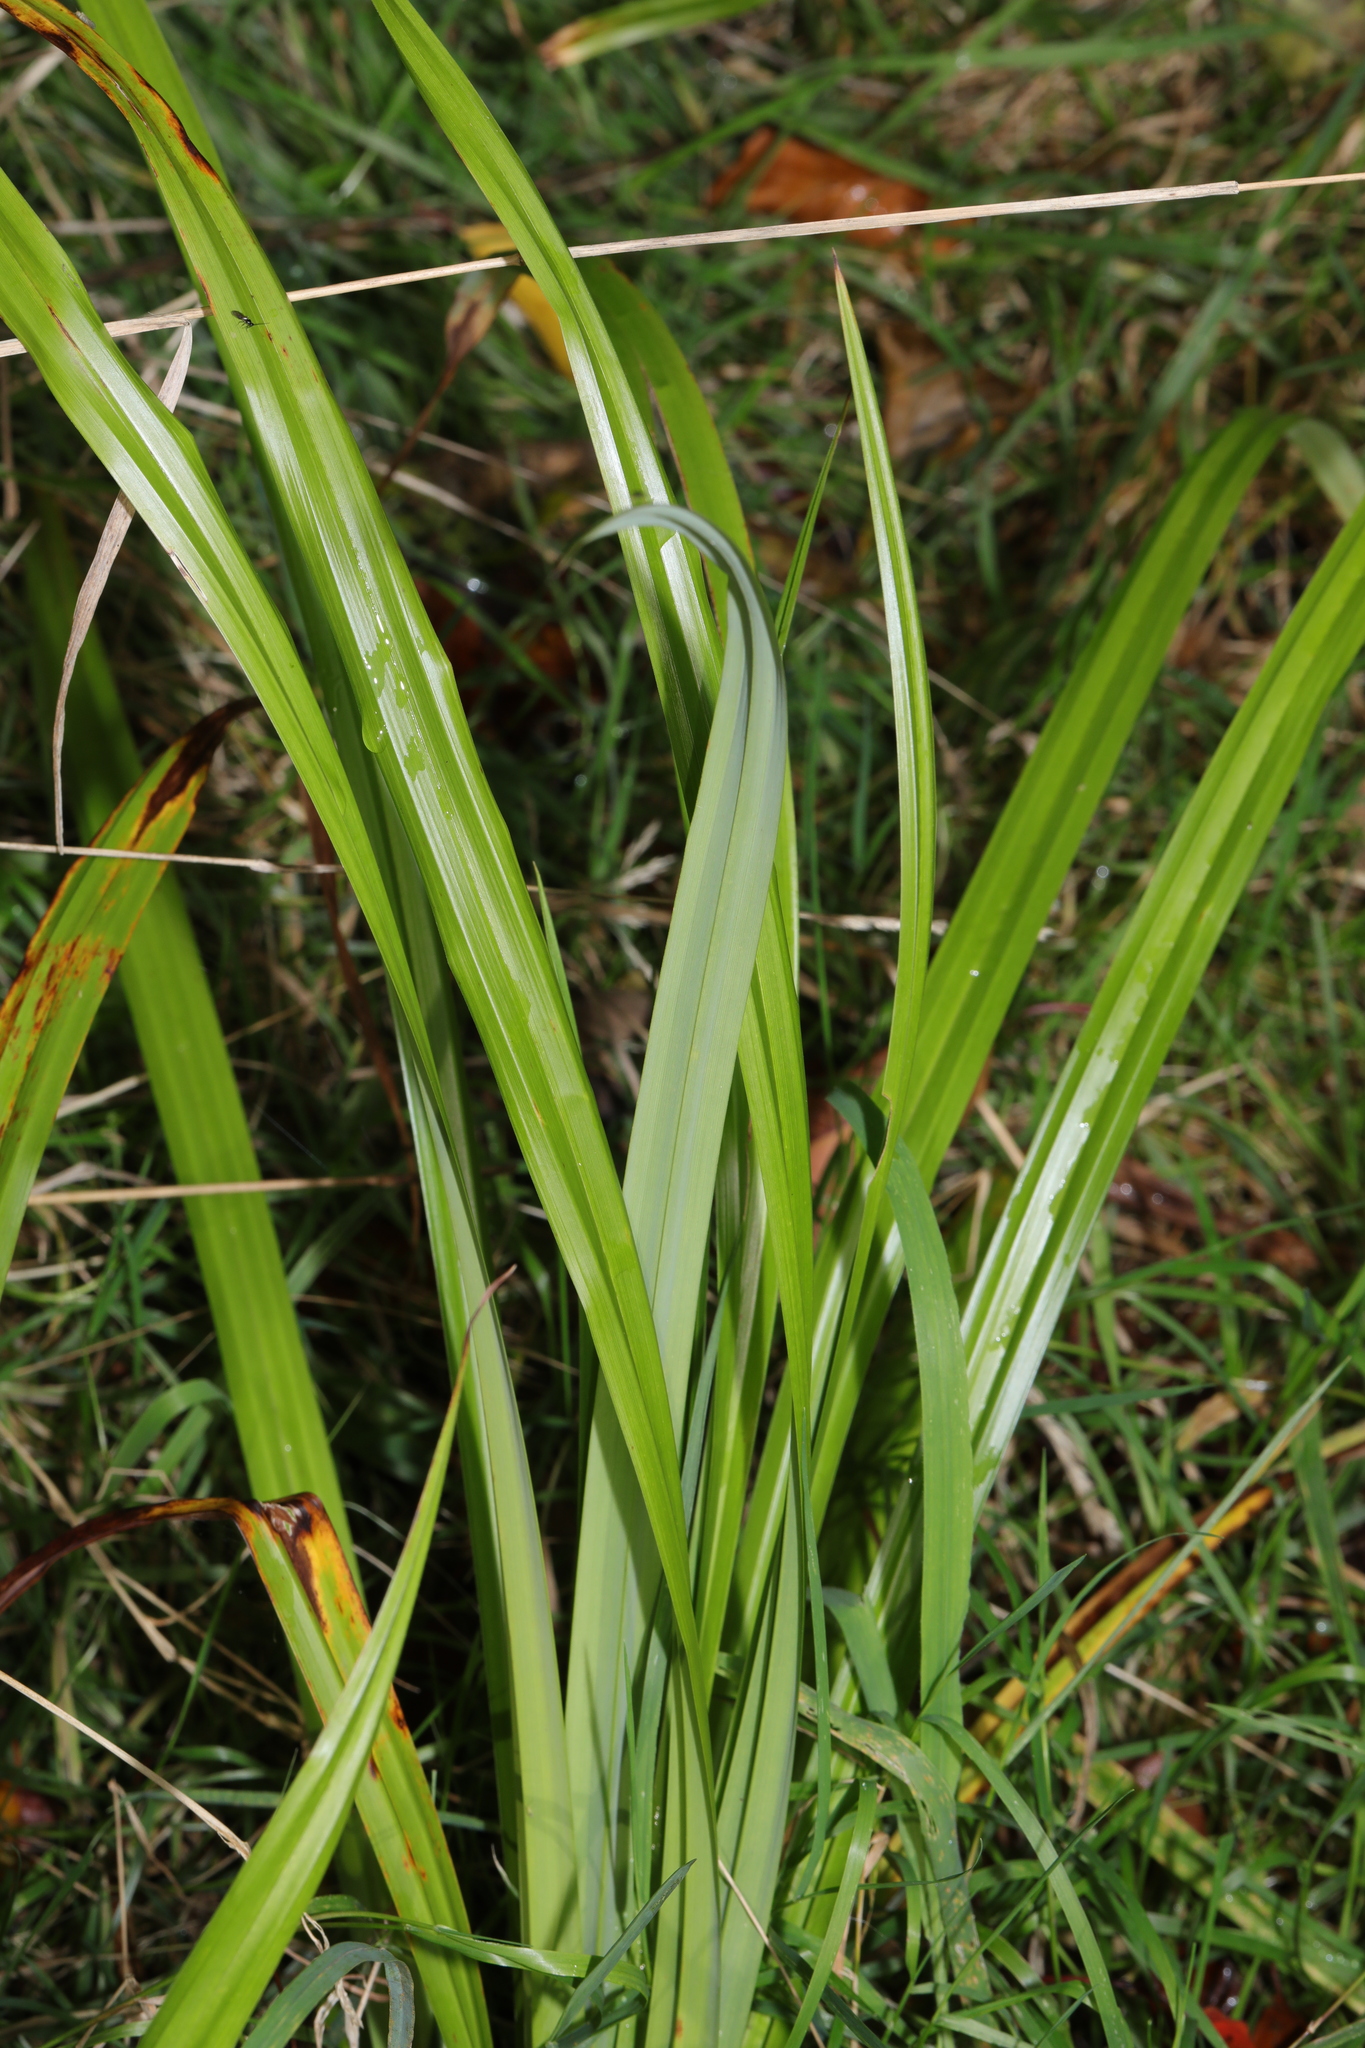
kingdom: Plantae
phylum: Tracheophyta
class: Liliopsida
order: Poales
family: Cyperaceae
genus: Carex
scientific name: Carex pendula
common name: Pendulous sedge
